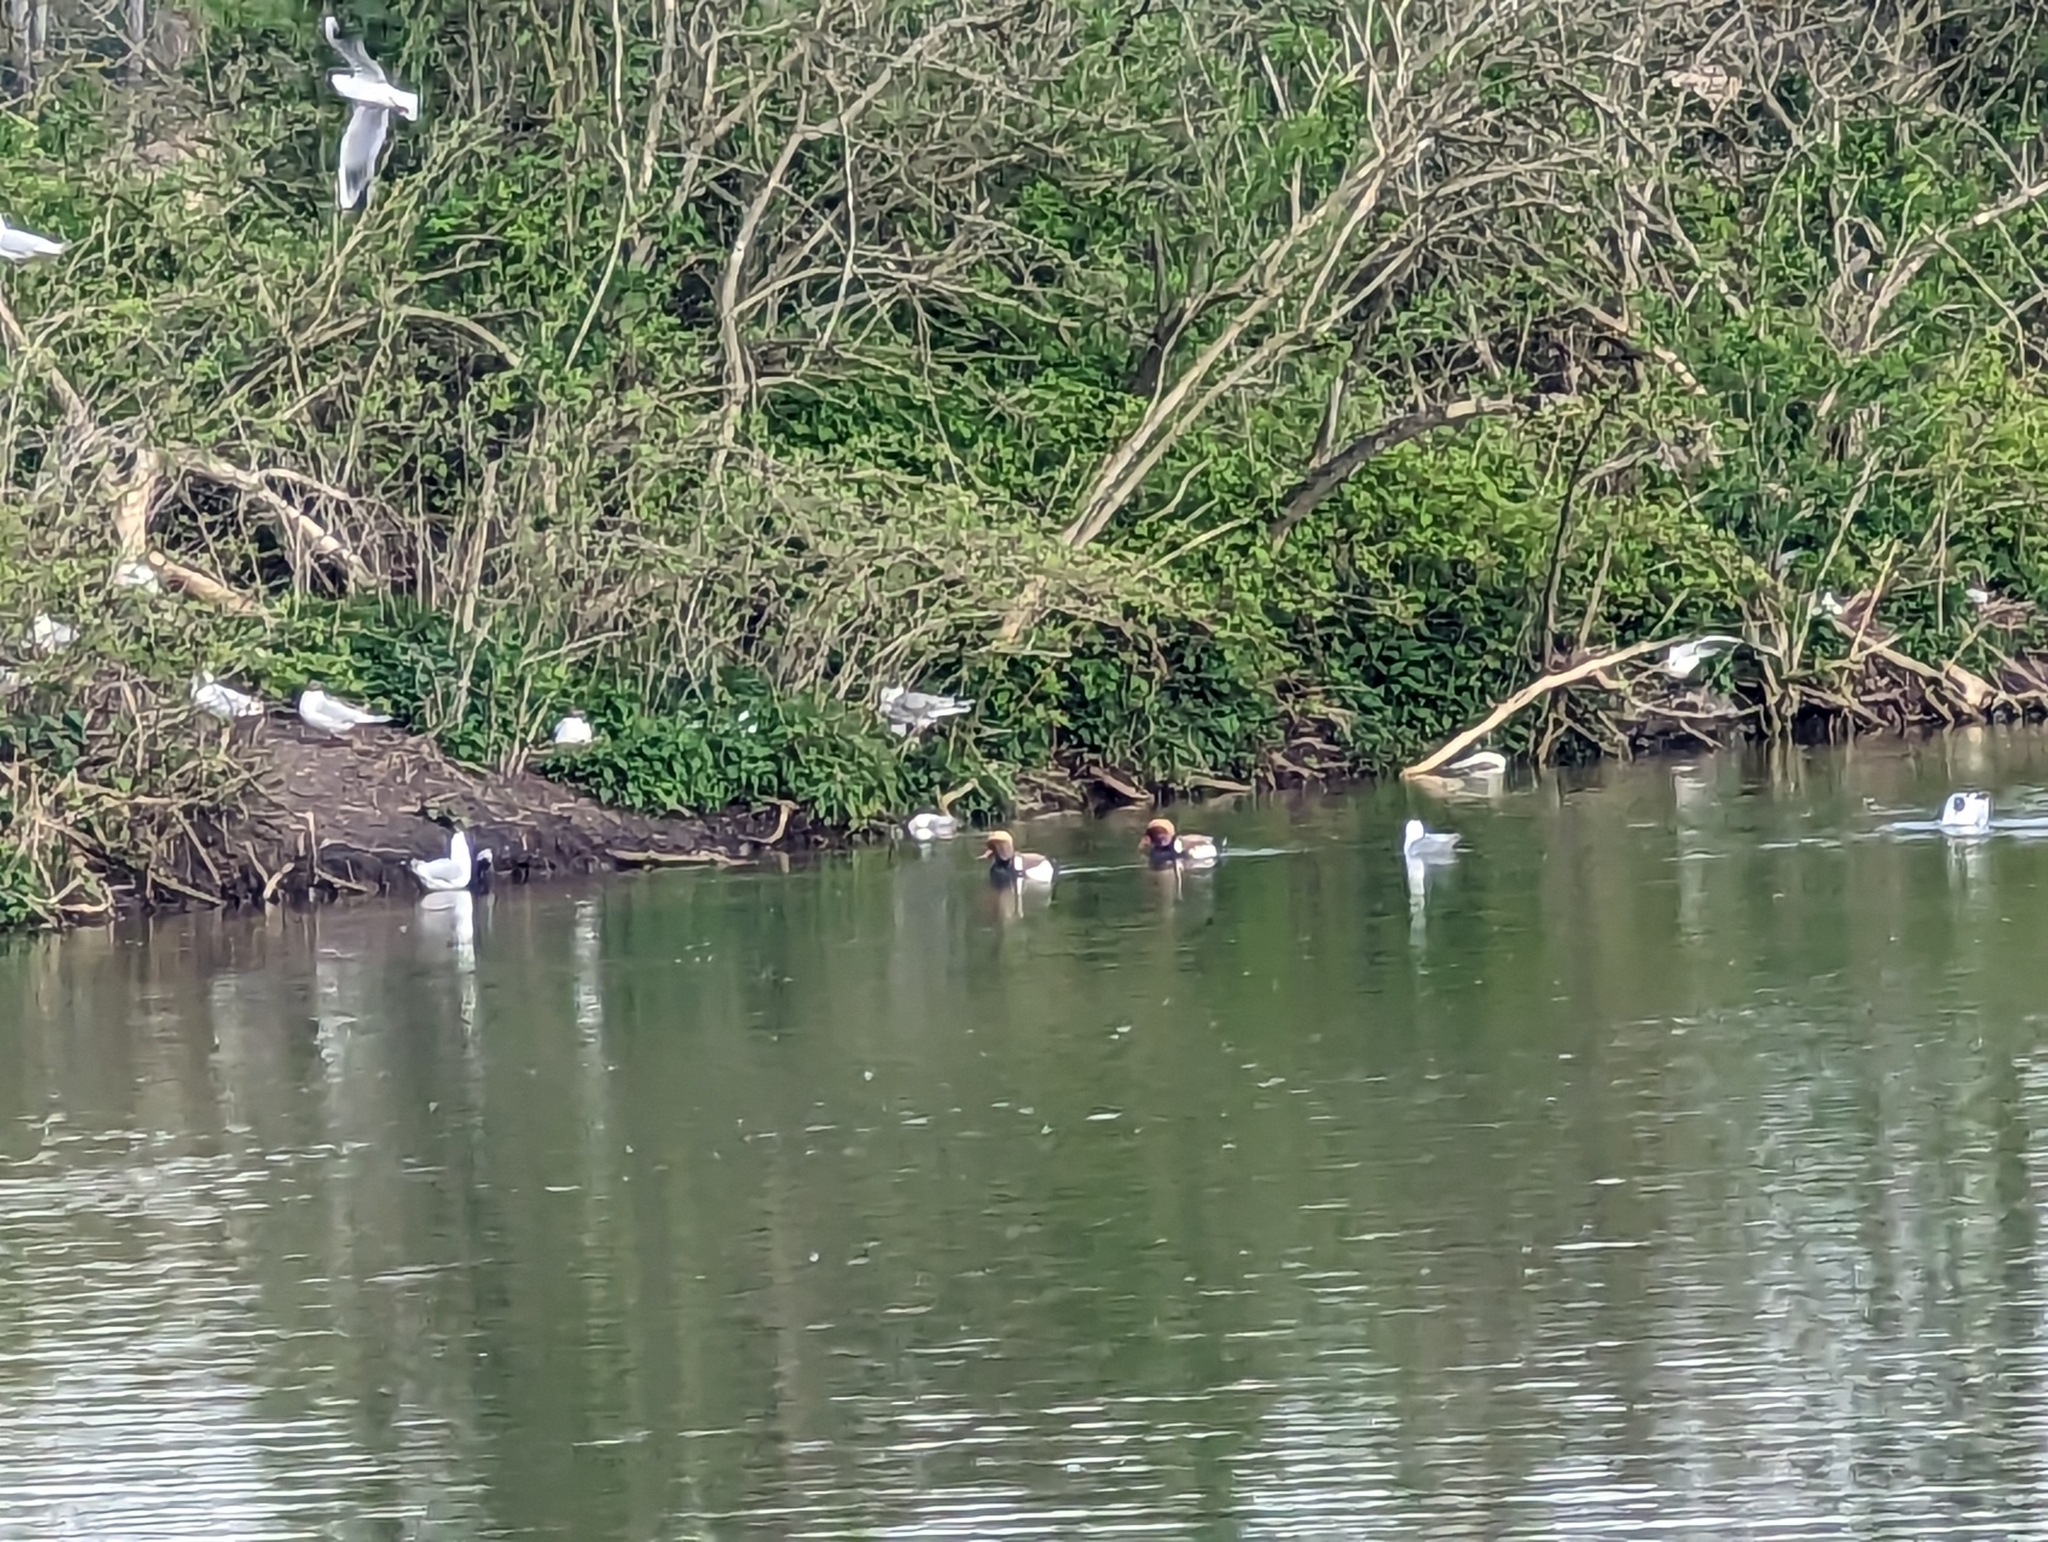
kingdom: Animalia
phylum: Chordata
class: Aves
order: Anseriformes
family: Anatidae
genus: Netta
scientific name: Netta rufina
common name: Red-crested pochard
